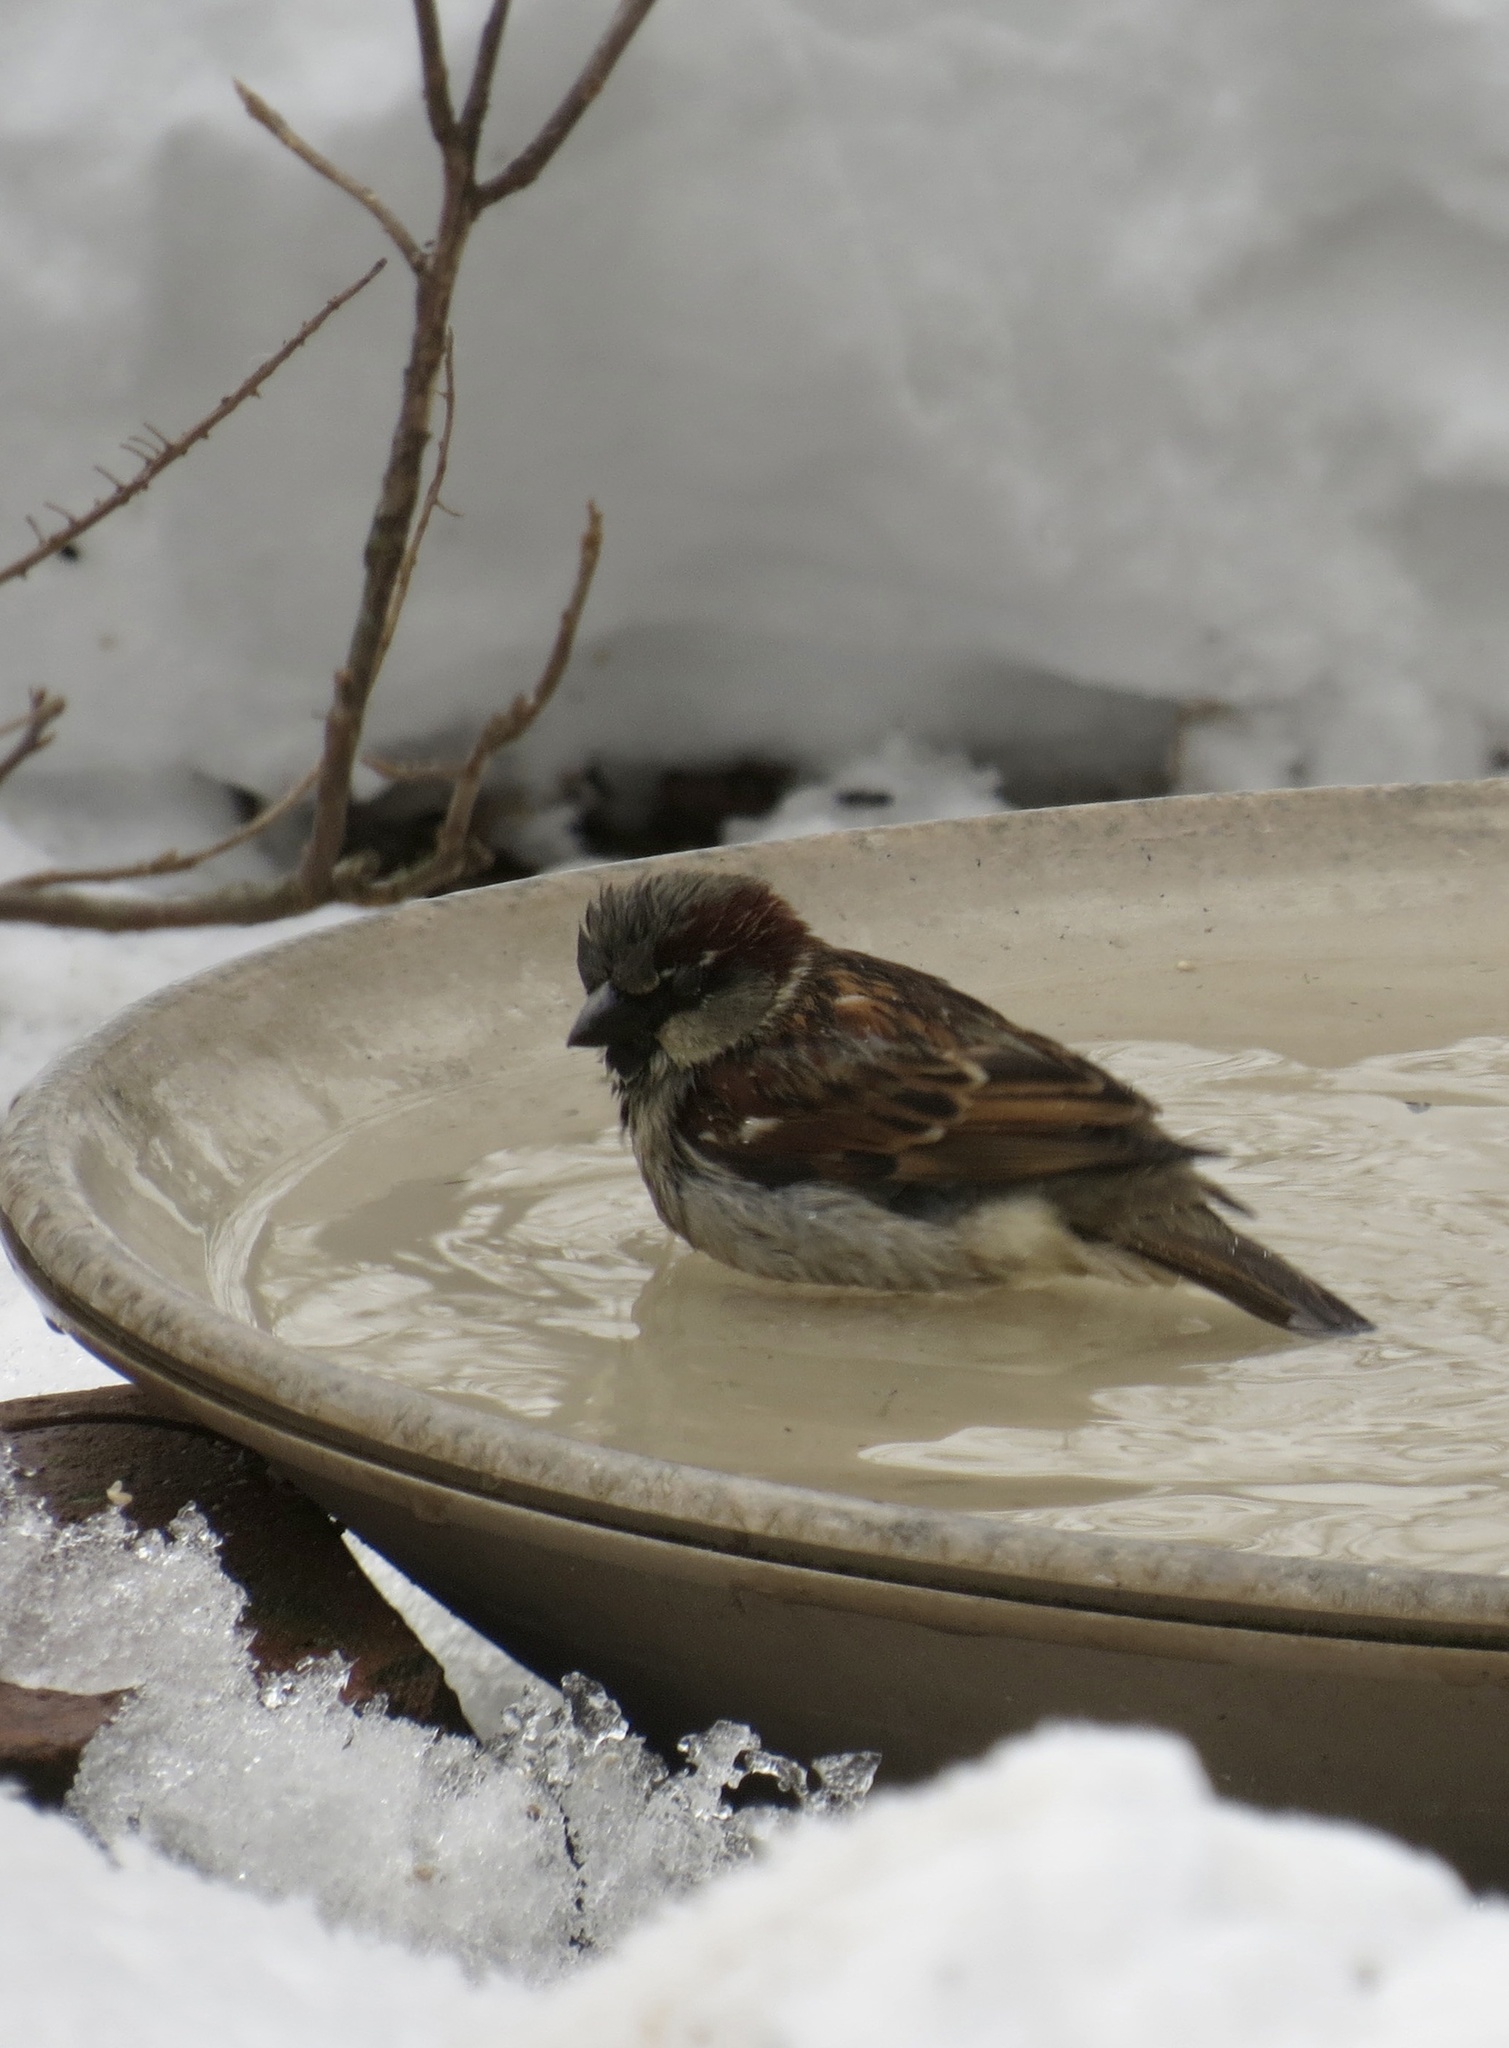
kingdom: Animalia
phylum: Chordata
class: Aves
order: Passeriformes
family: Passeridae
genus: Passer
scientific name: Passer domesticus
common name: House sparrow
